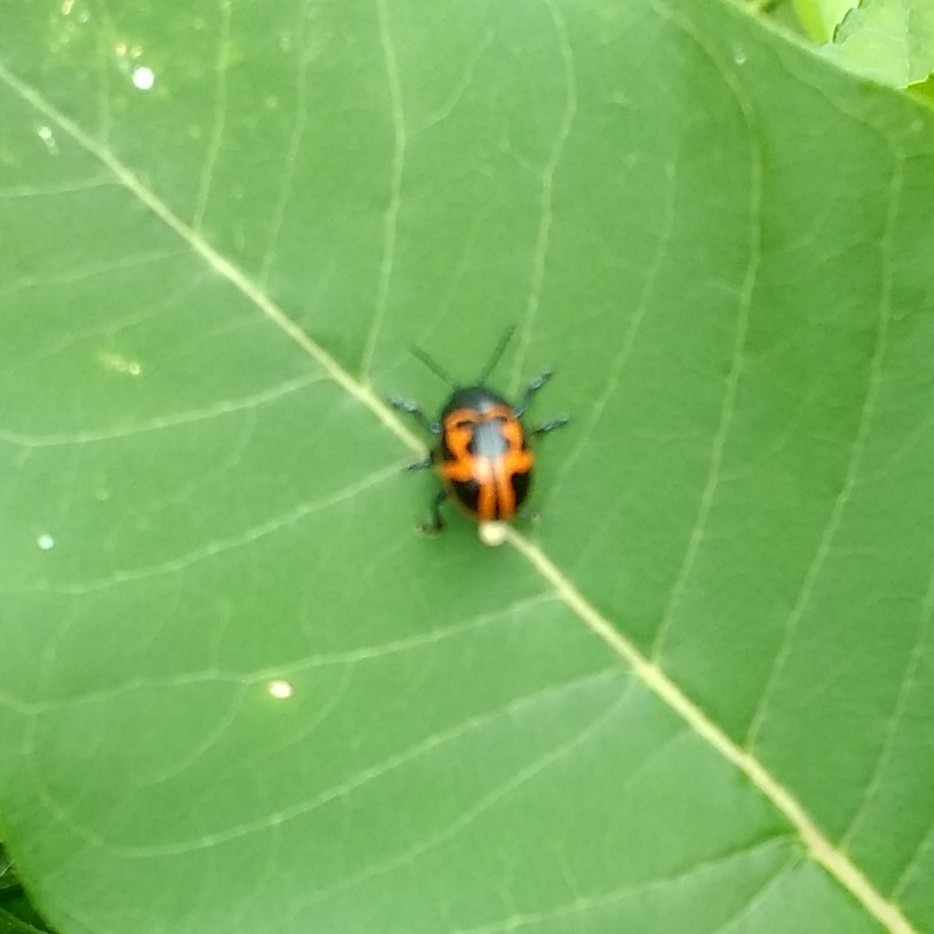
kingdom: Animalia
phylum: Arthropoda
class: Insecta
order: Coleoptera
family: Chrysomelidae
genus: Labidomera
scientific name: Labidomera clivicollis
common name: Swamp milkweed leaf beetle
